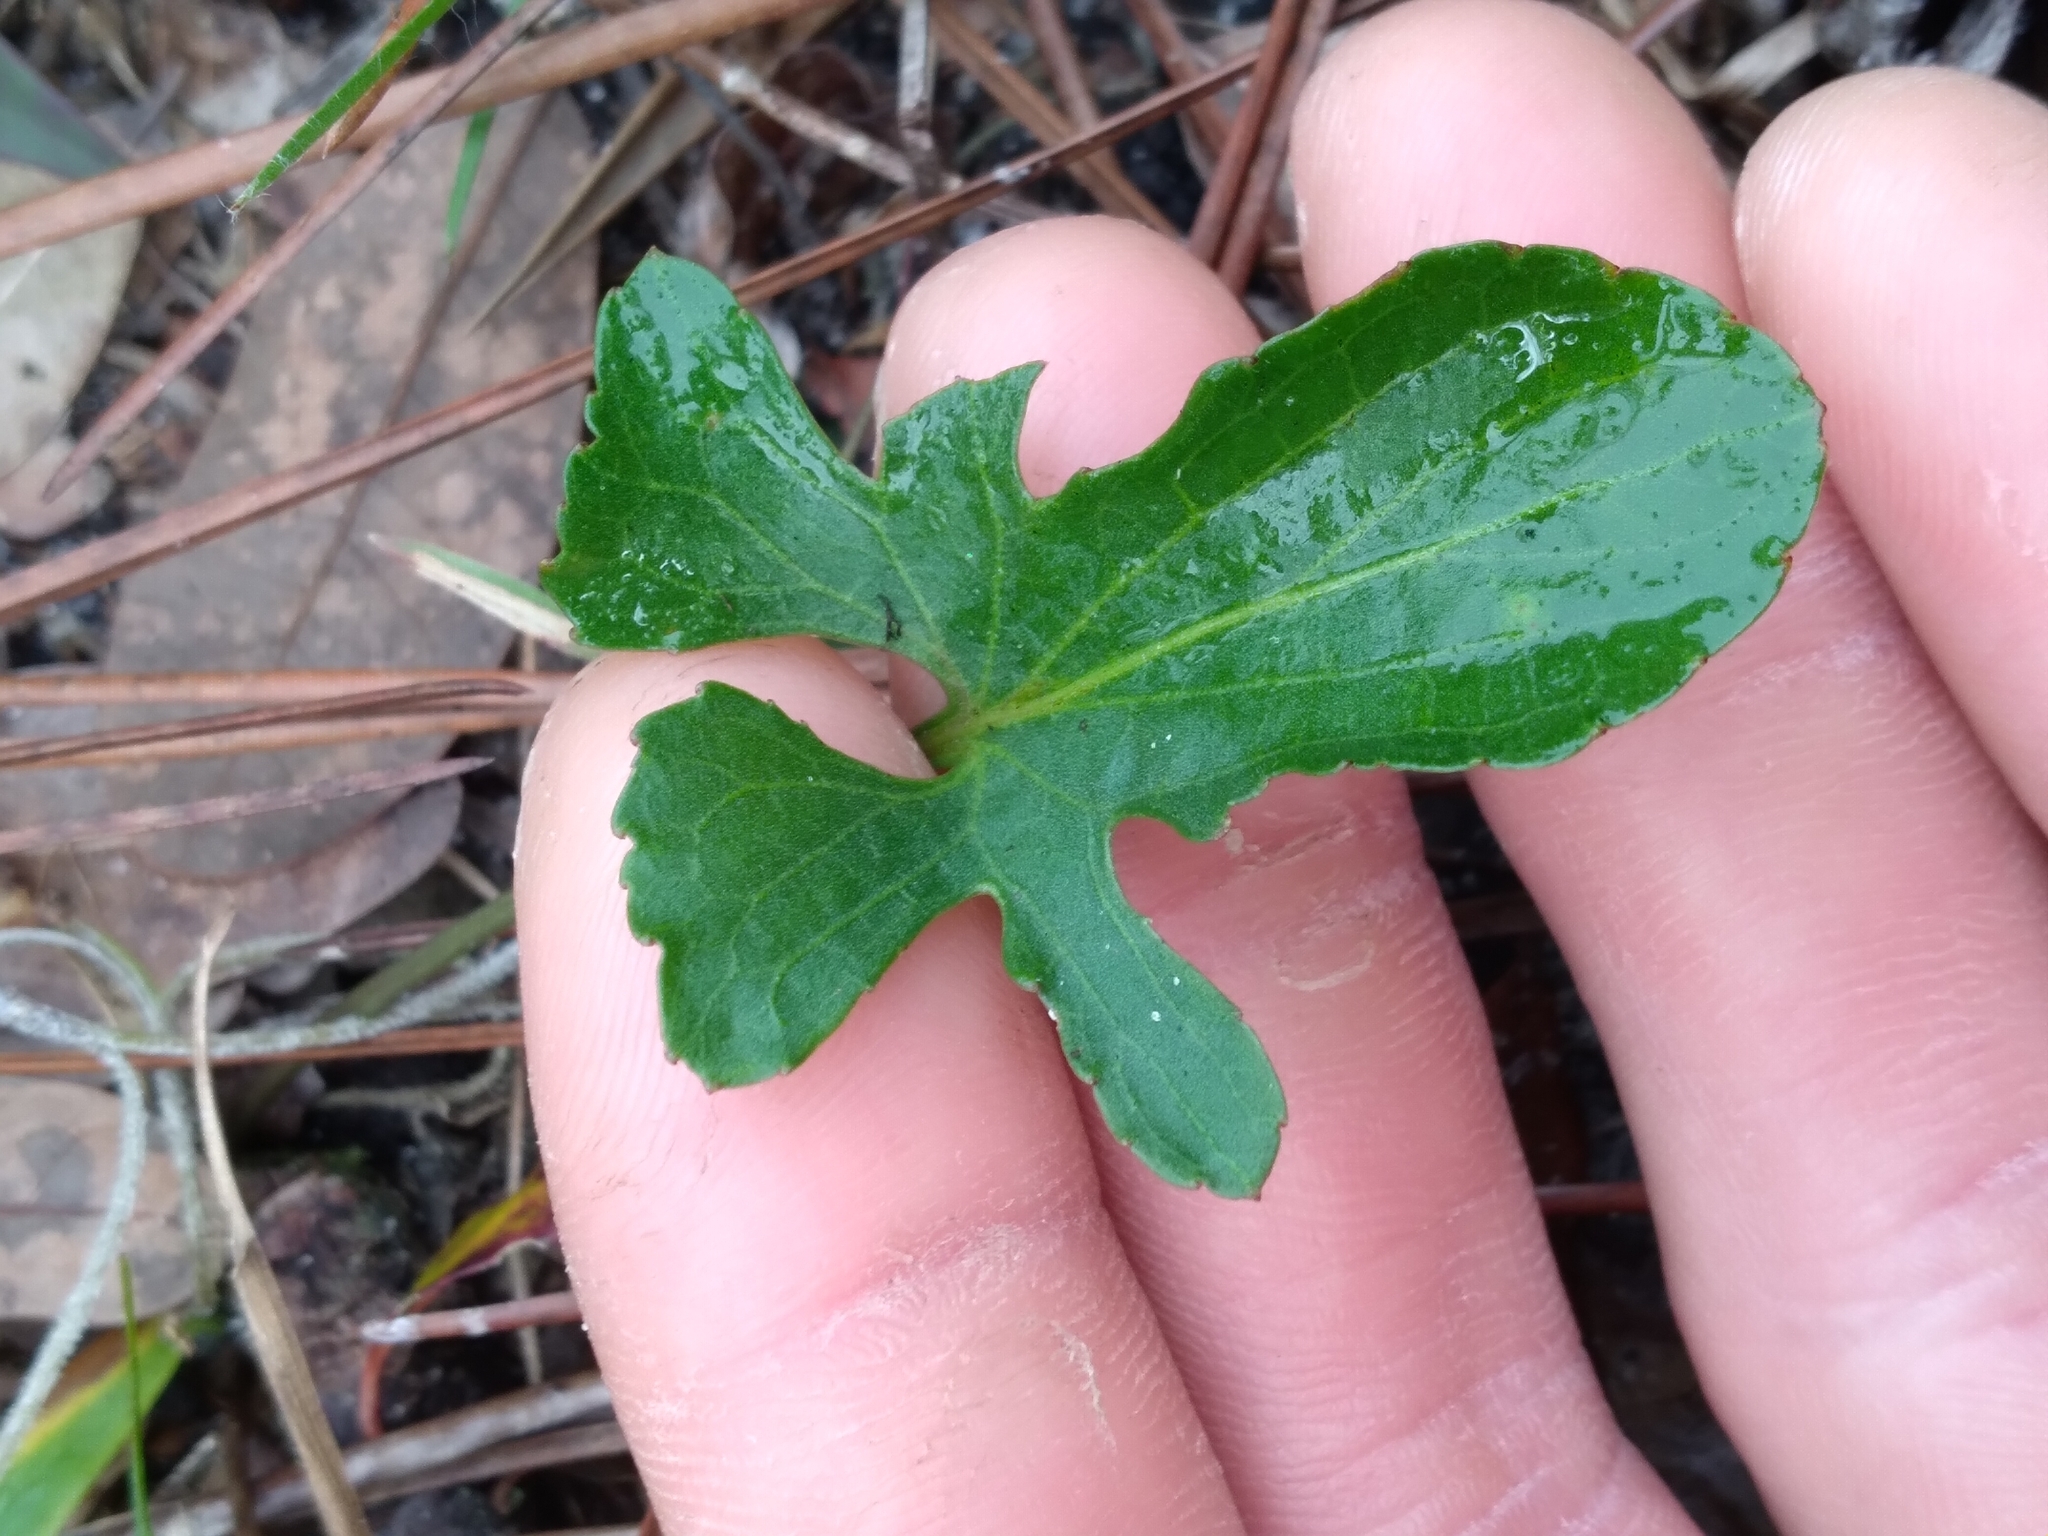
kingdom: Plantae
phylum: Tracheophyta
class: Magnoliopsida
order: Malpighiales
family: Violaceae
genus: Viola
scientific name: Viola septemloba
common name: Southern coast violet
